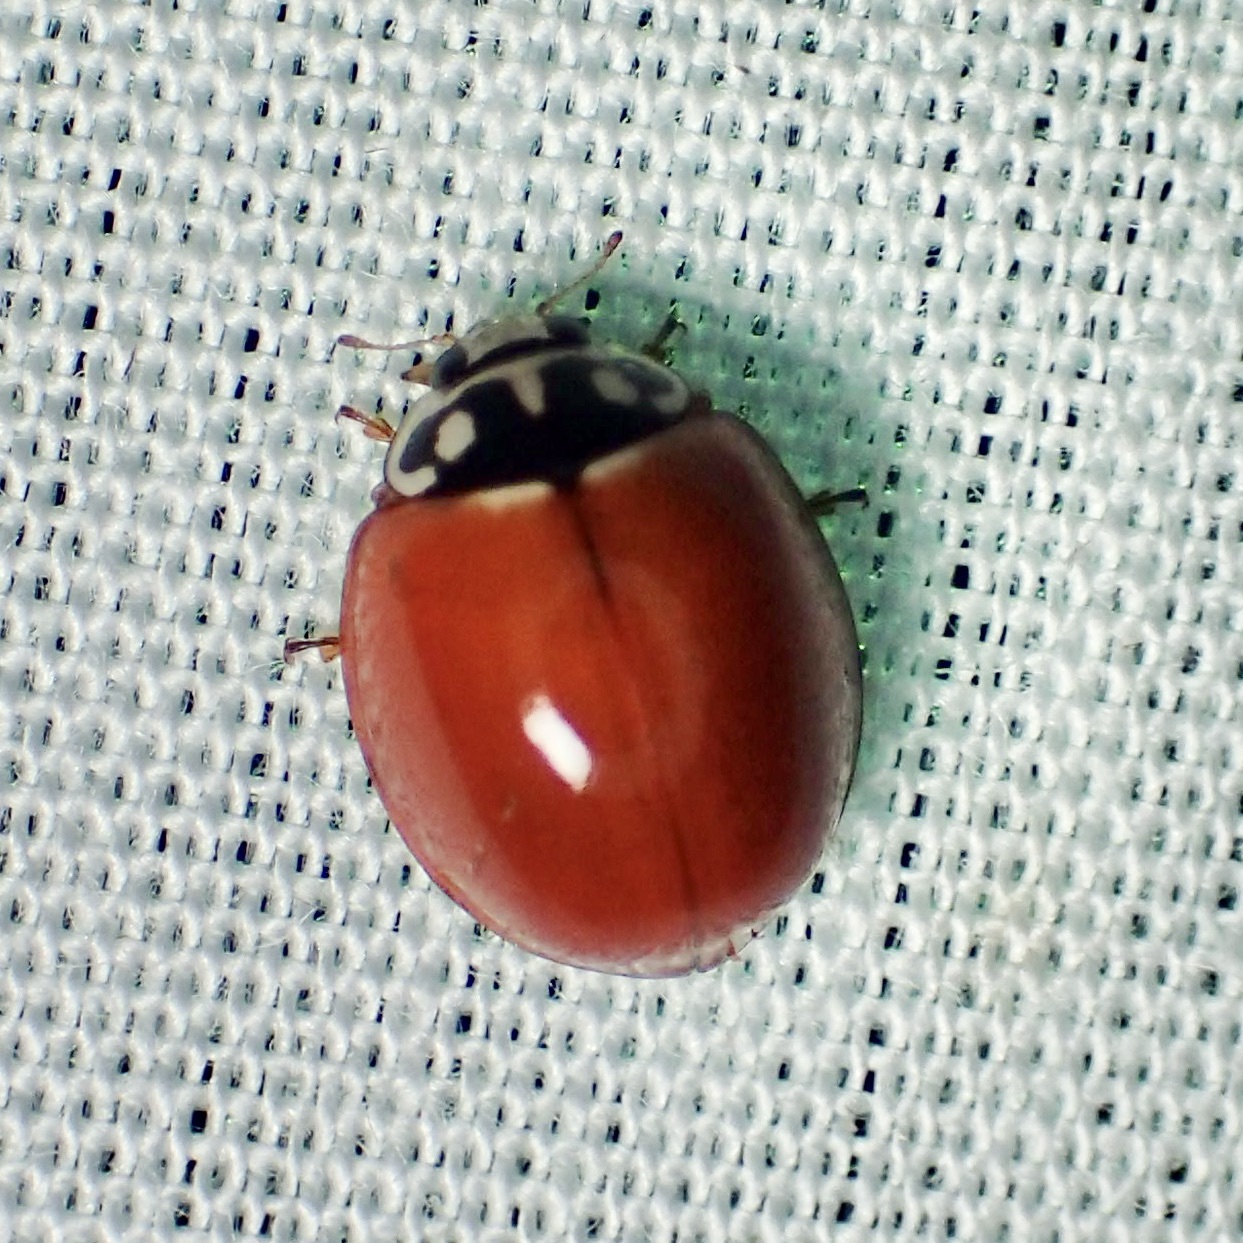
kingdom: Animalia
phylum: Arthropoda
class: Insecta
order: Coleoptera
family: Coccinellidae
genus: Cycloneda
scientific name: Cycloneda sanguinea
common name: Ladybird beetle
